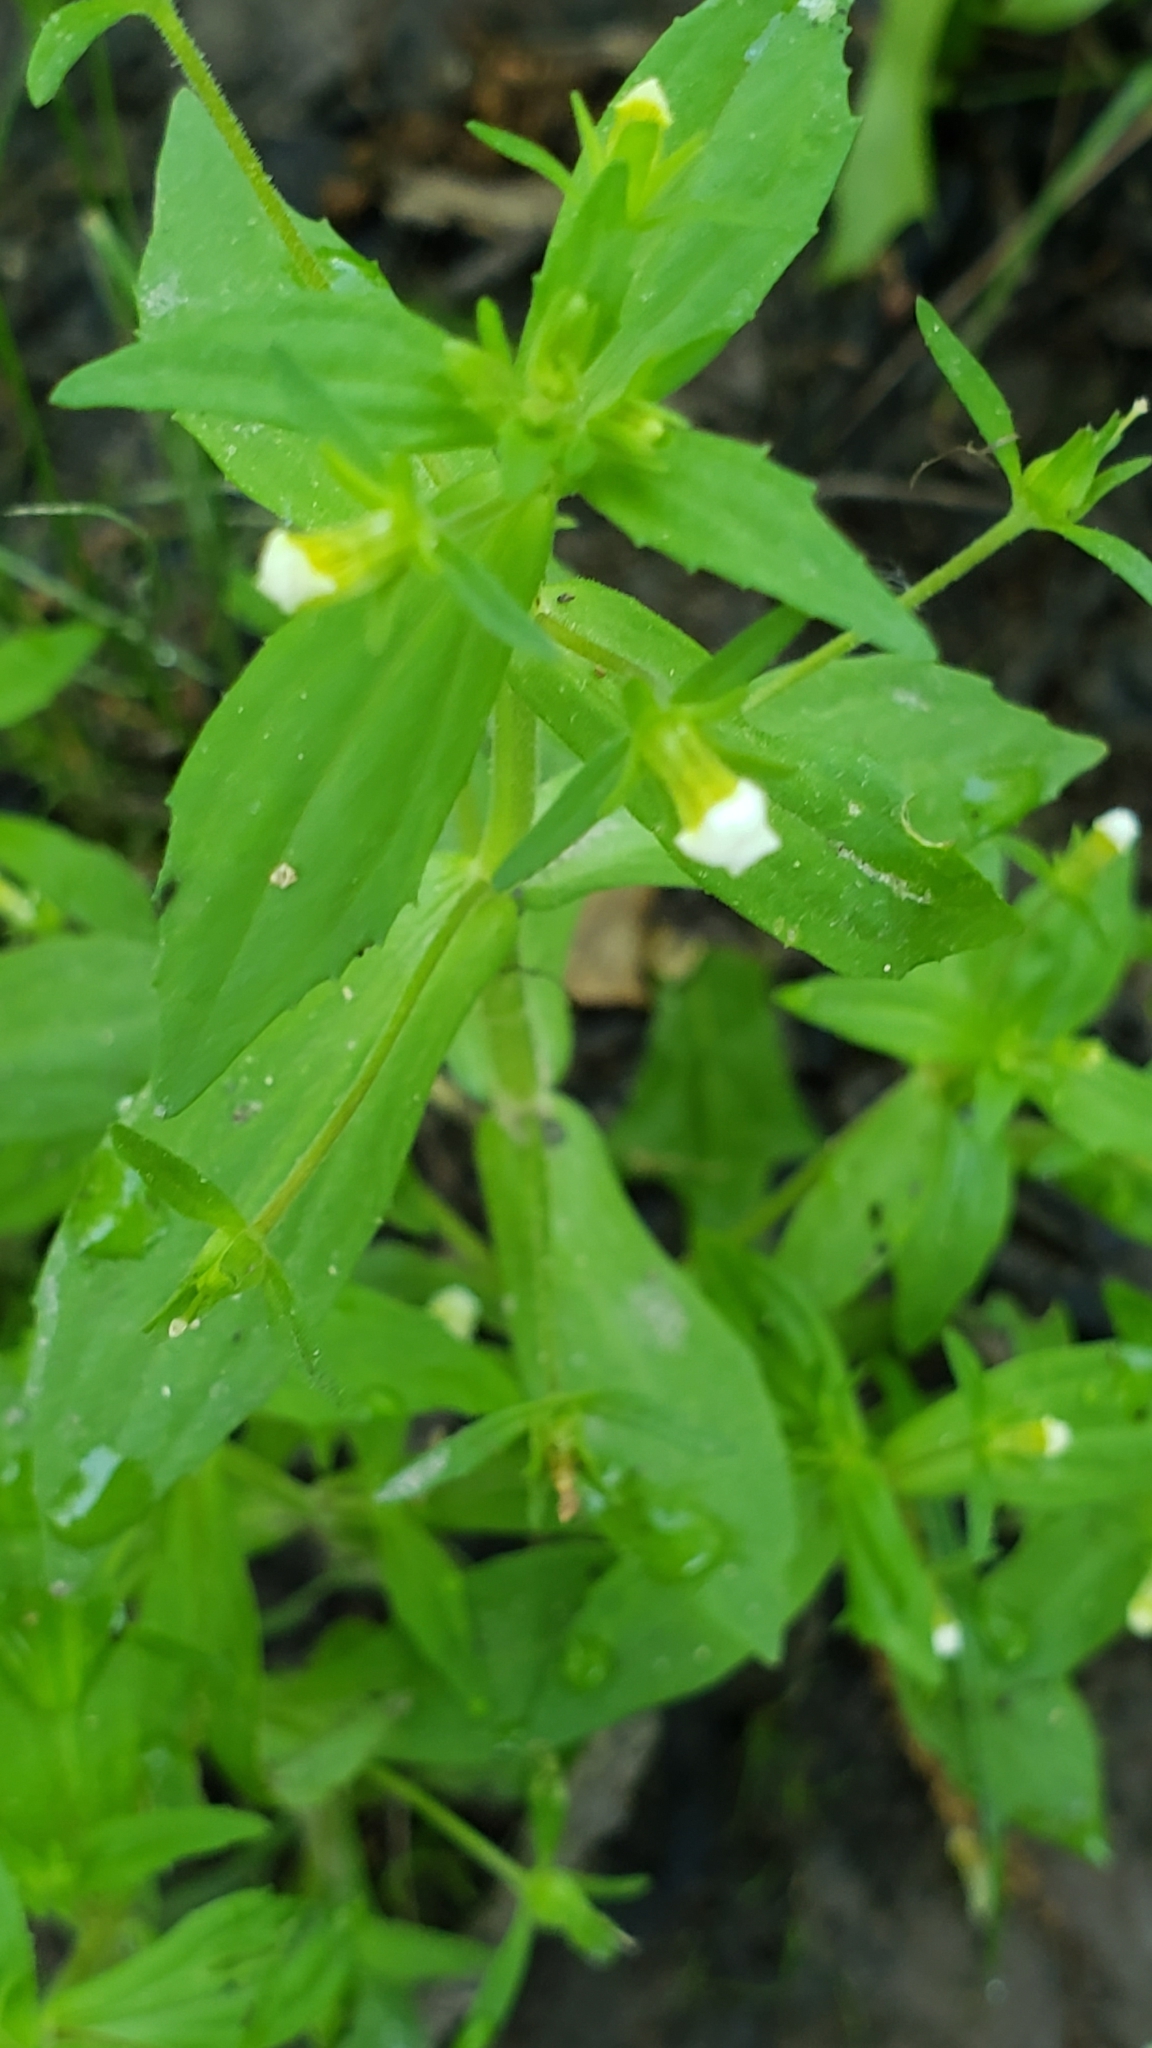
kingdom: Plantae
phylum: Tracheophyta
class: Magnoliopsida
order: Lamiales
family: Plantaginaceae
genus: Gratiola
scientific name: Gratiola neglecta
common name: American hedge-hyssop
